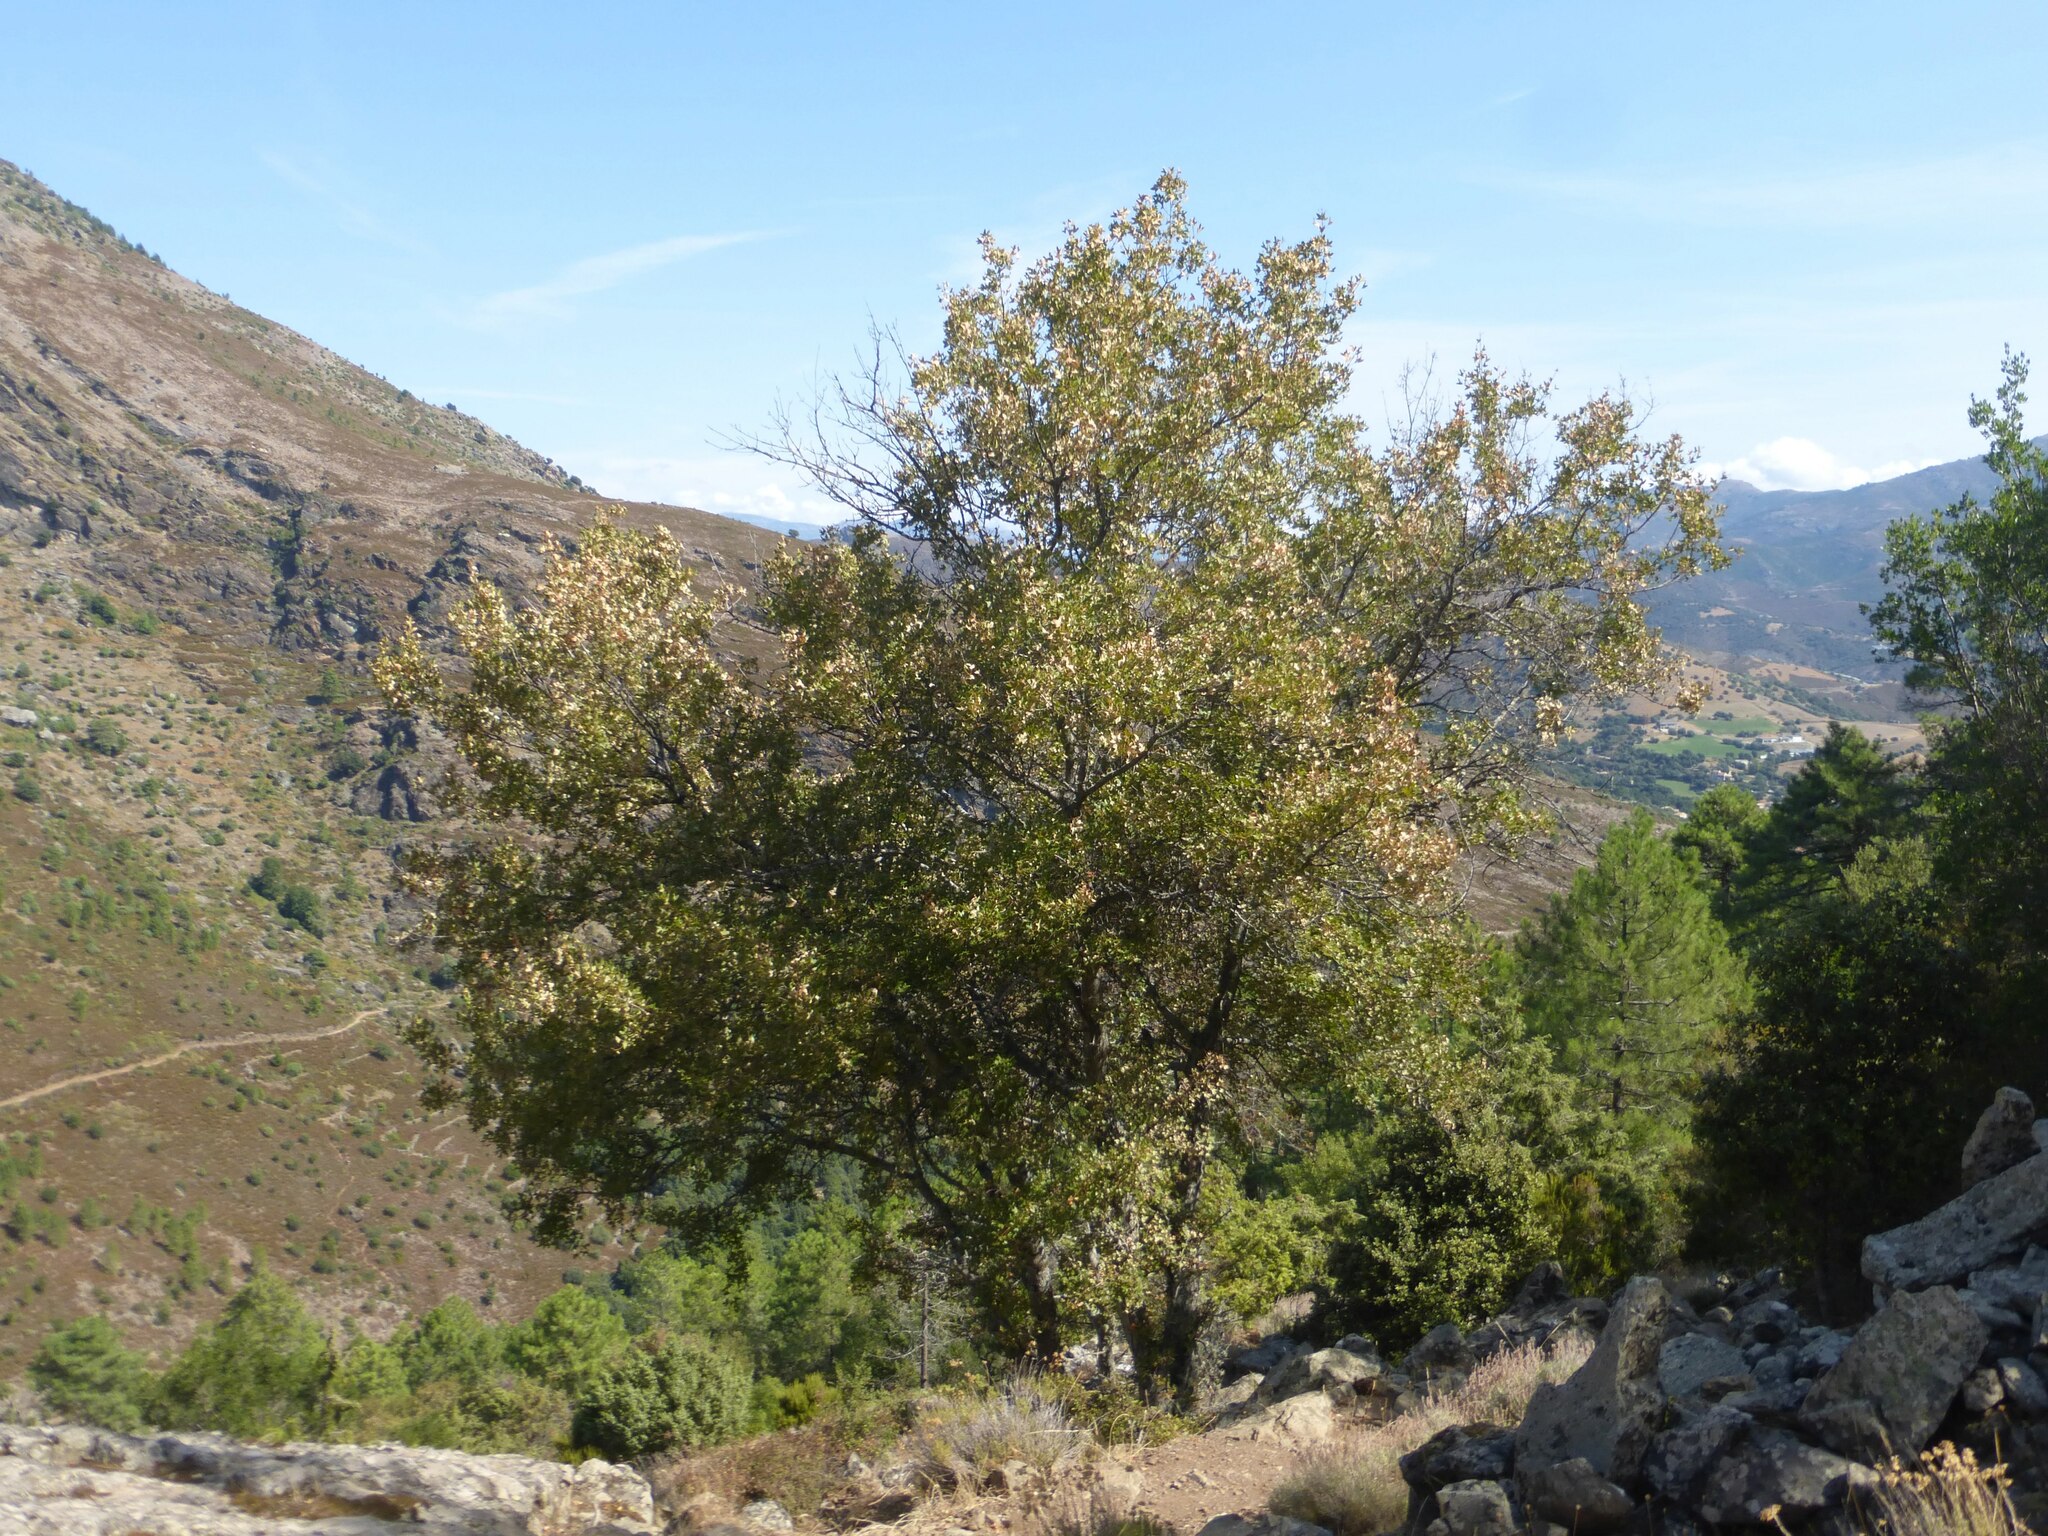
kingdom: Plantae
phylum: Tracheophyta
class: Magnoliopsida
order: Sapindales
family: Sapindaceae
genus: Acer
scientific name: Acer monspessulanum
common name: Montpellier maple
